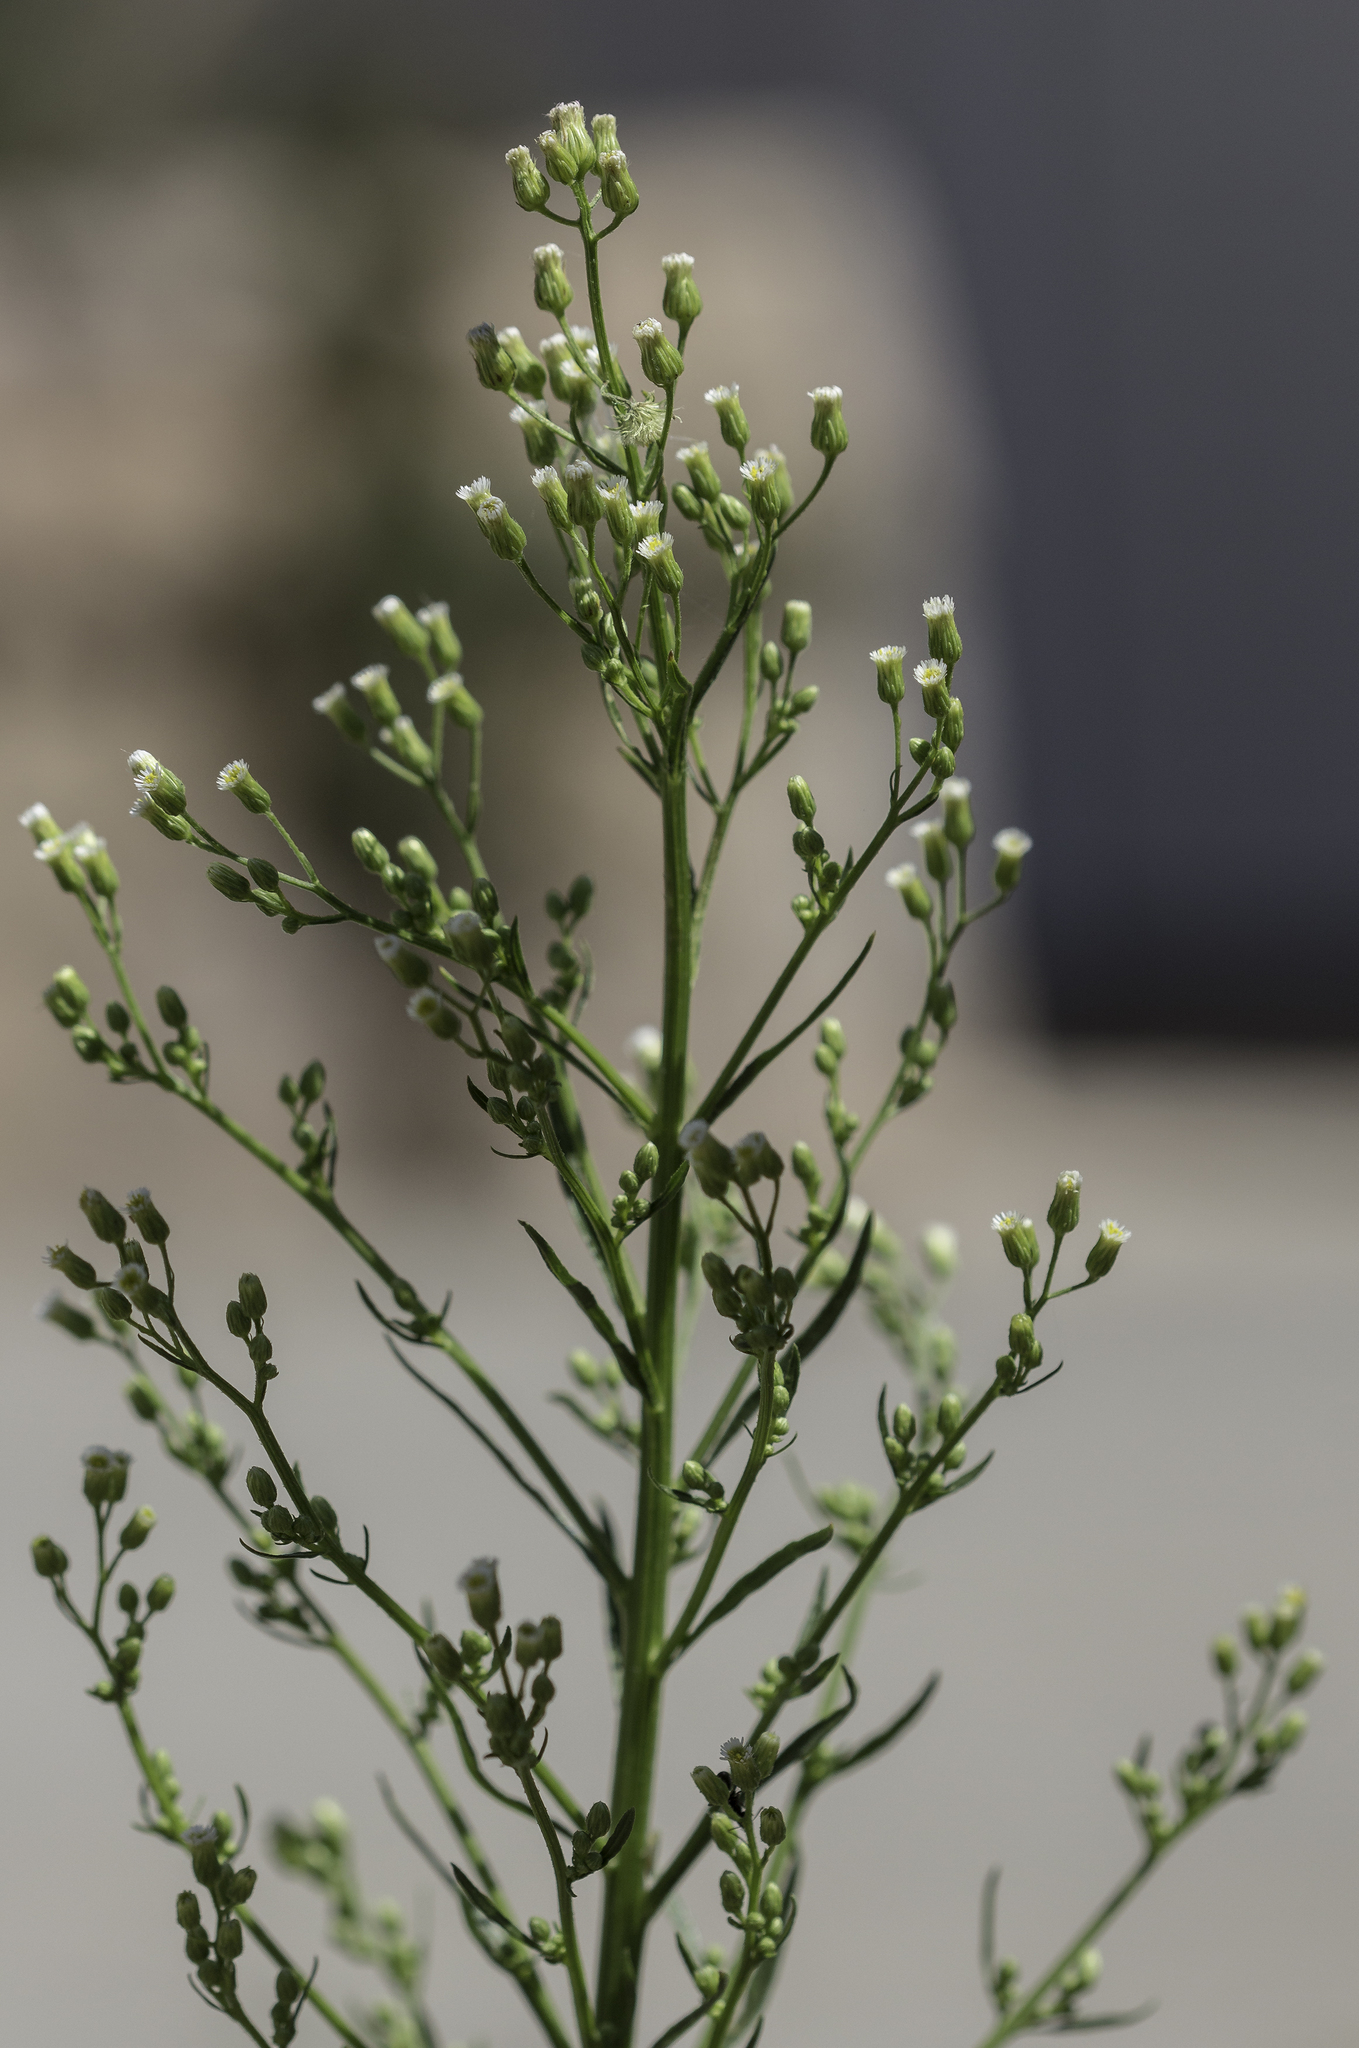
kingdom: Plantae
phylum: Tracheophyta
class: Magnoliopsida
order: Asterales
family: Asteraceae
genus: Erigeron
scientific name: Erigeron canadensis
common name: Canadian fleabane
